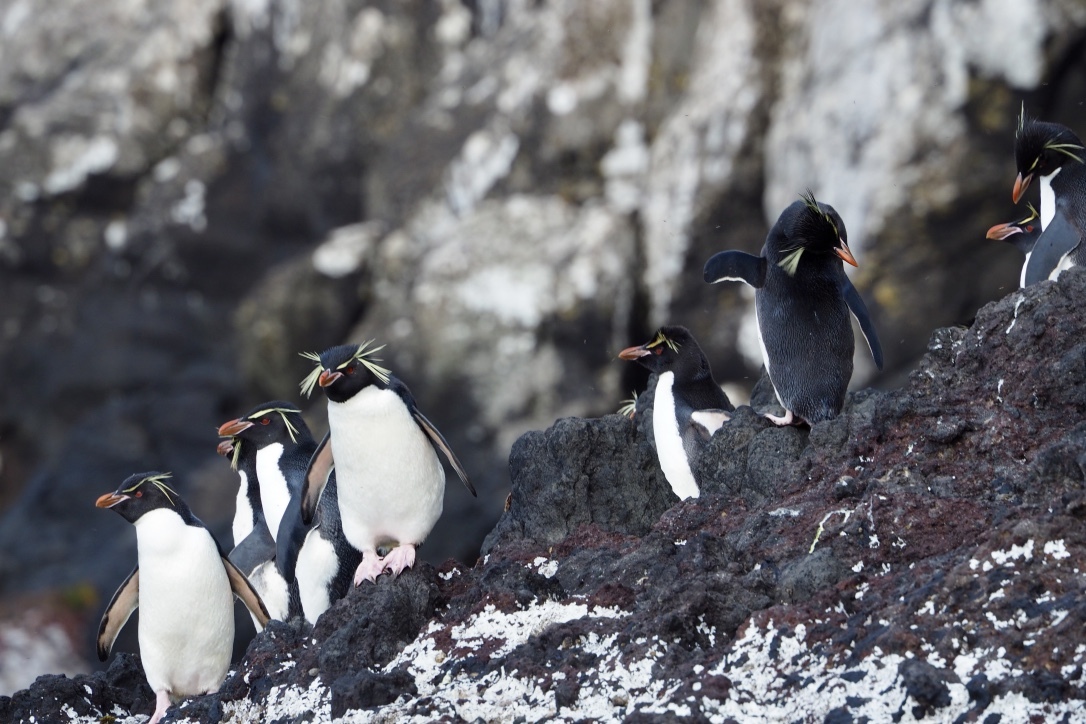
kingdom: Animalia
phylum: Chordata
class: Aves
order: Sphenisciformes
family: Spheniscidae
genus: Eudyptes
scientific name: Eudyptes filholi
